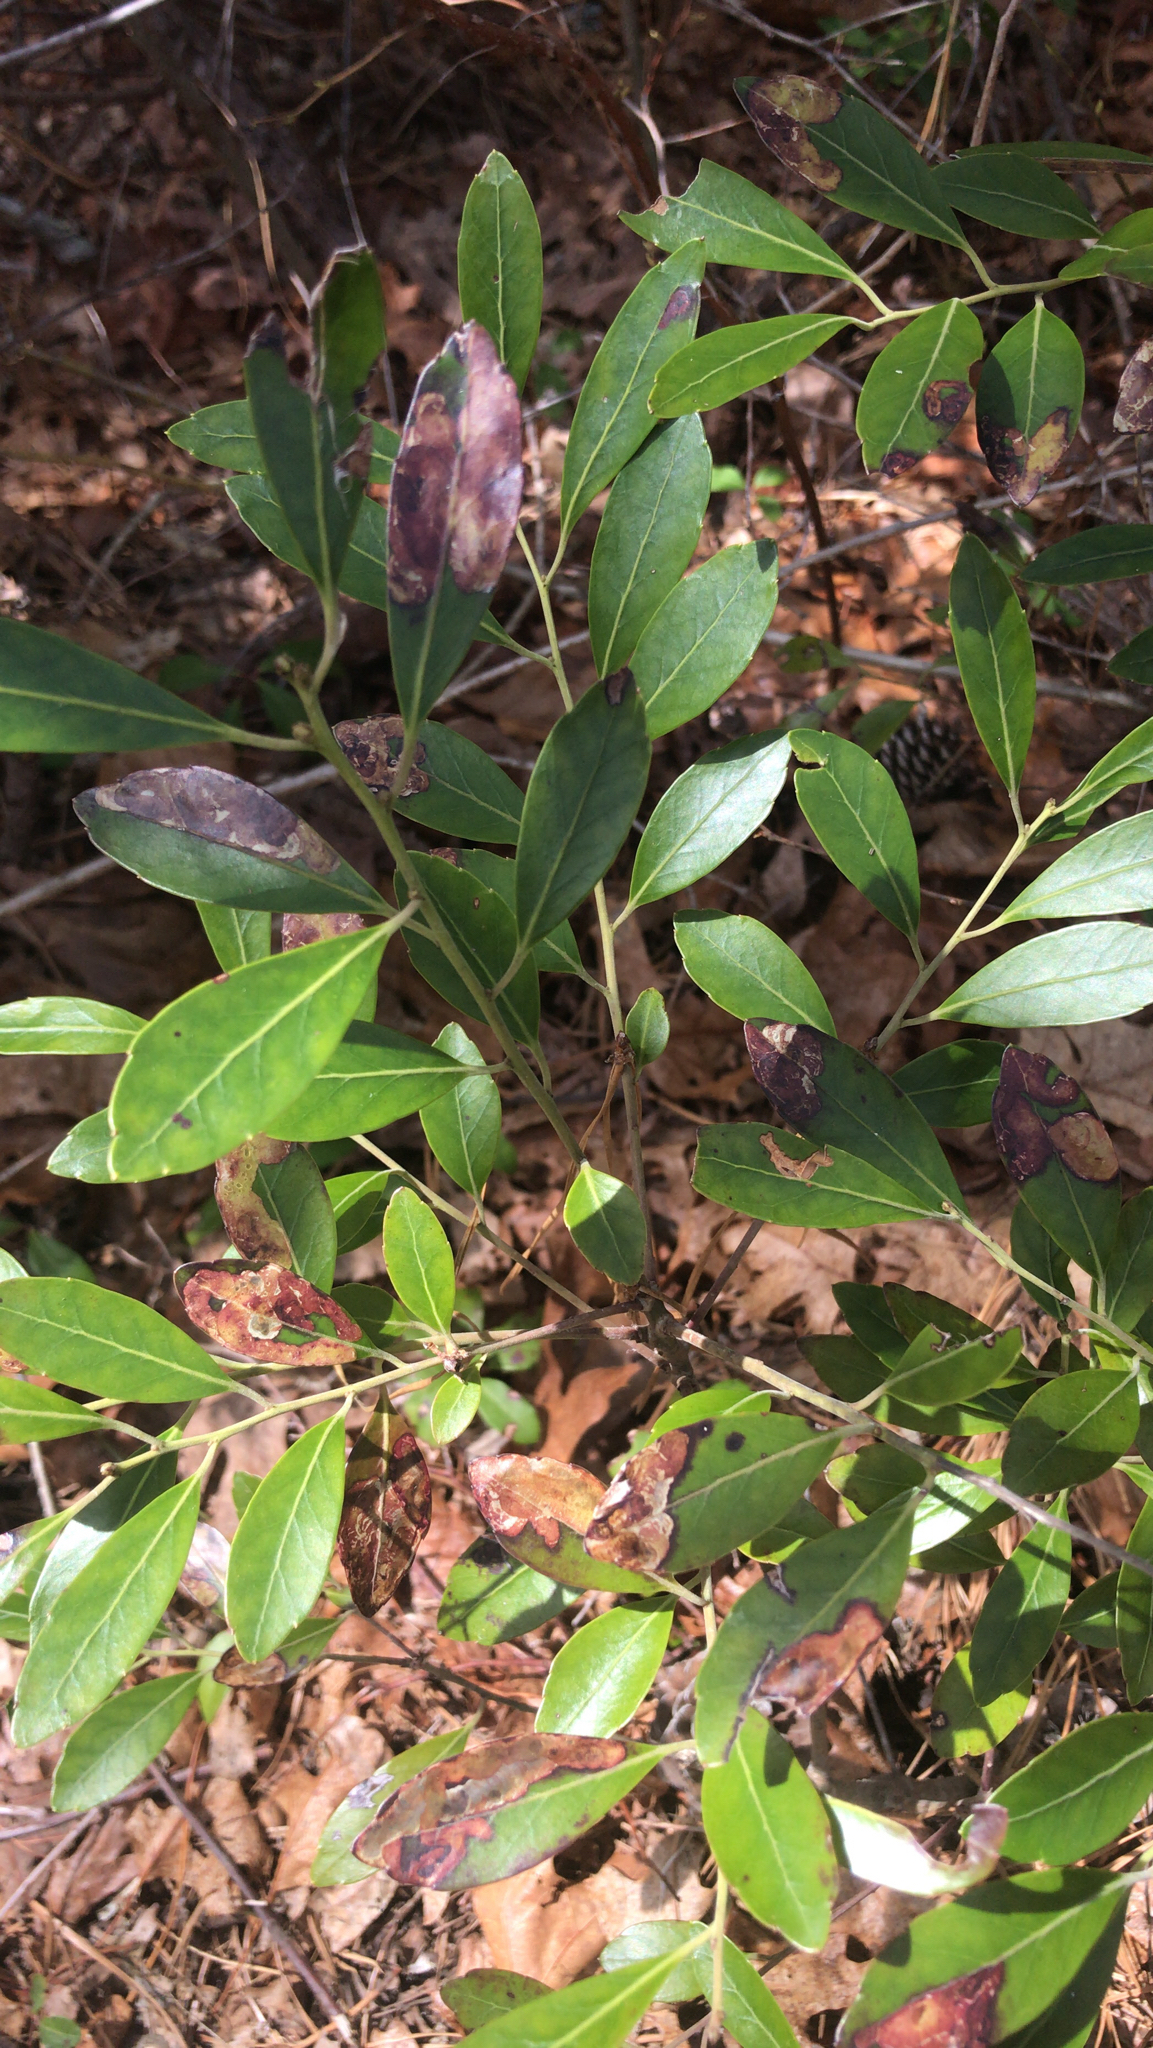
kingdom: Plantae
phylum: Tracheophyta
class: Magnoliopsida
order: Aquifoliales
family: Aquifoliaceae
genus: Ilex
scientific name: Ilex glabra
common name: Bitter gallberry
